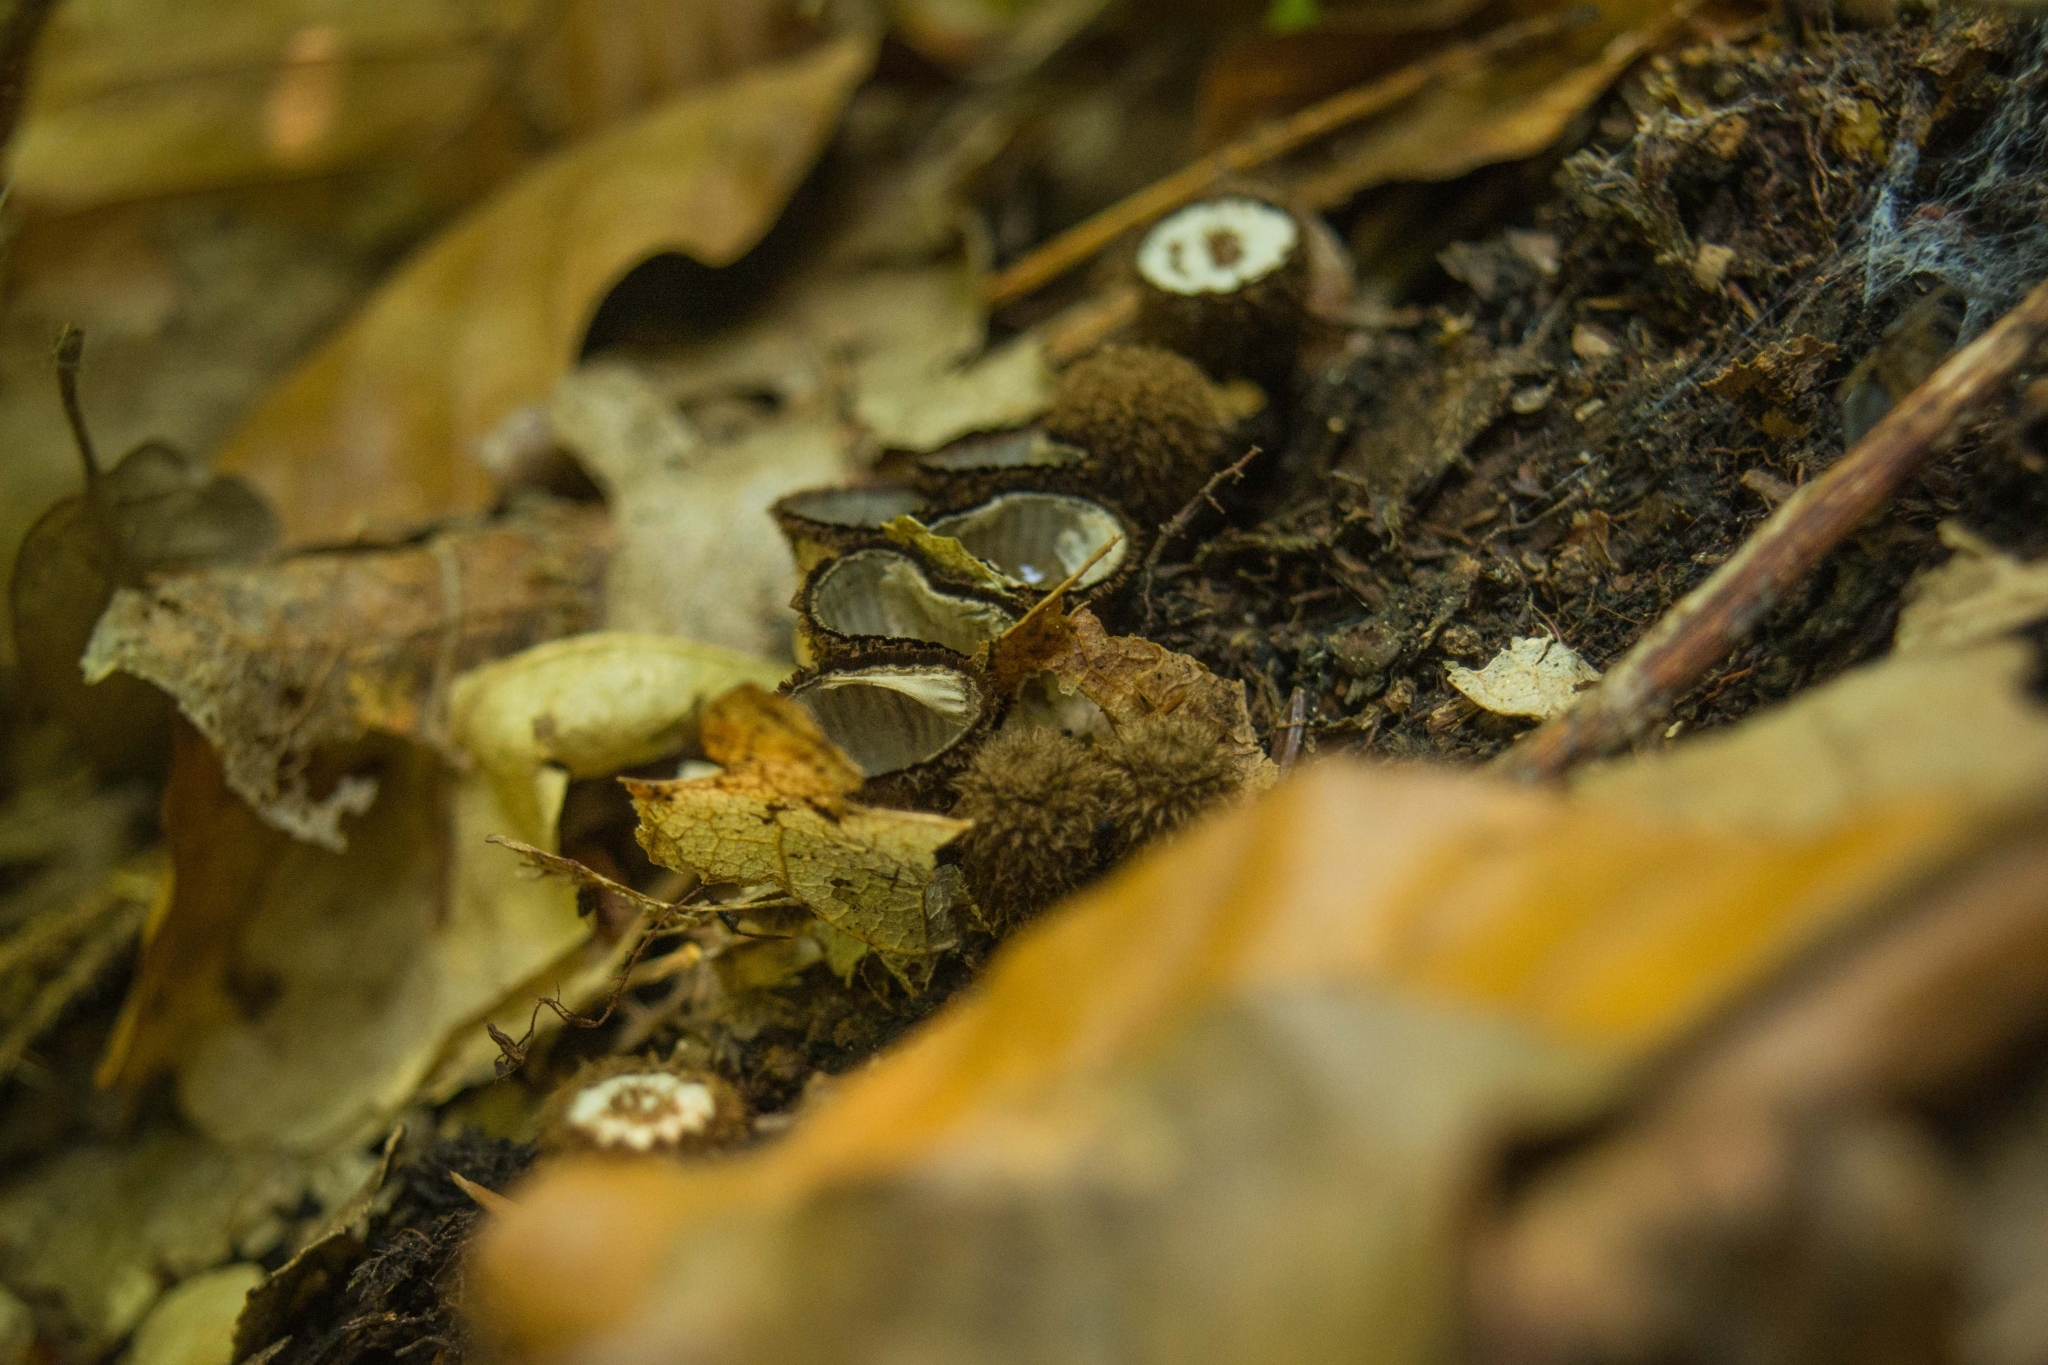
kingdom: Fungi
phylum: Basidiomycota
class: Agaricomycetes
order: Agaricales
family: Agaricaceae
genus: Cyathus
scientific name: Cyathus striatus
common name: Fluted bird's nest
